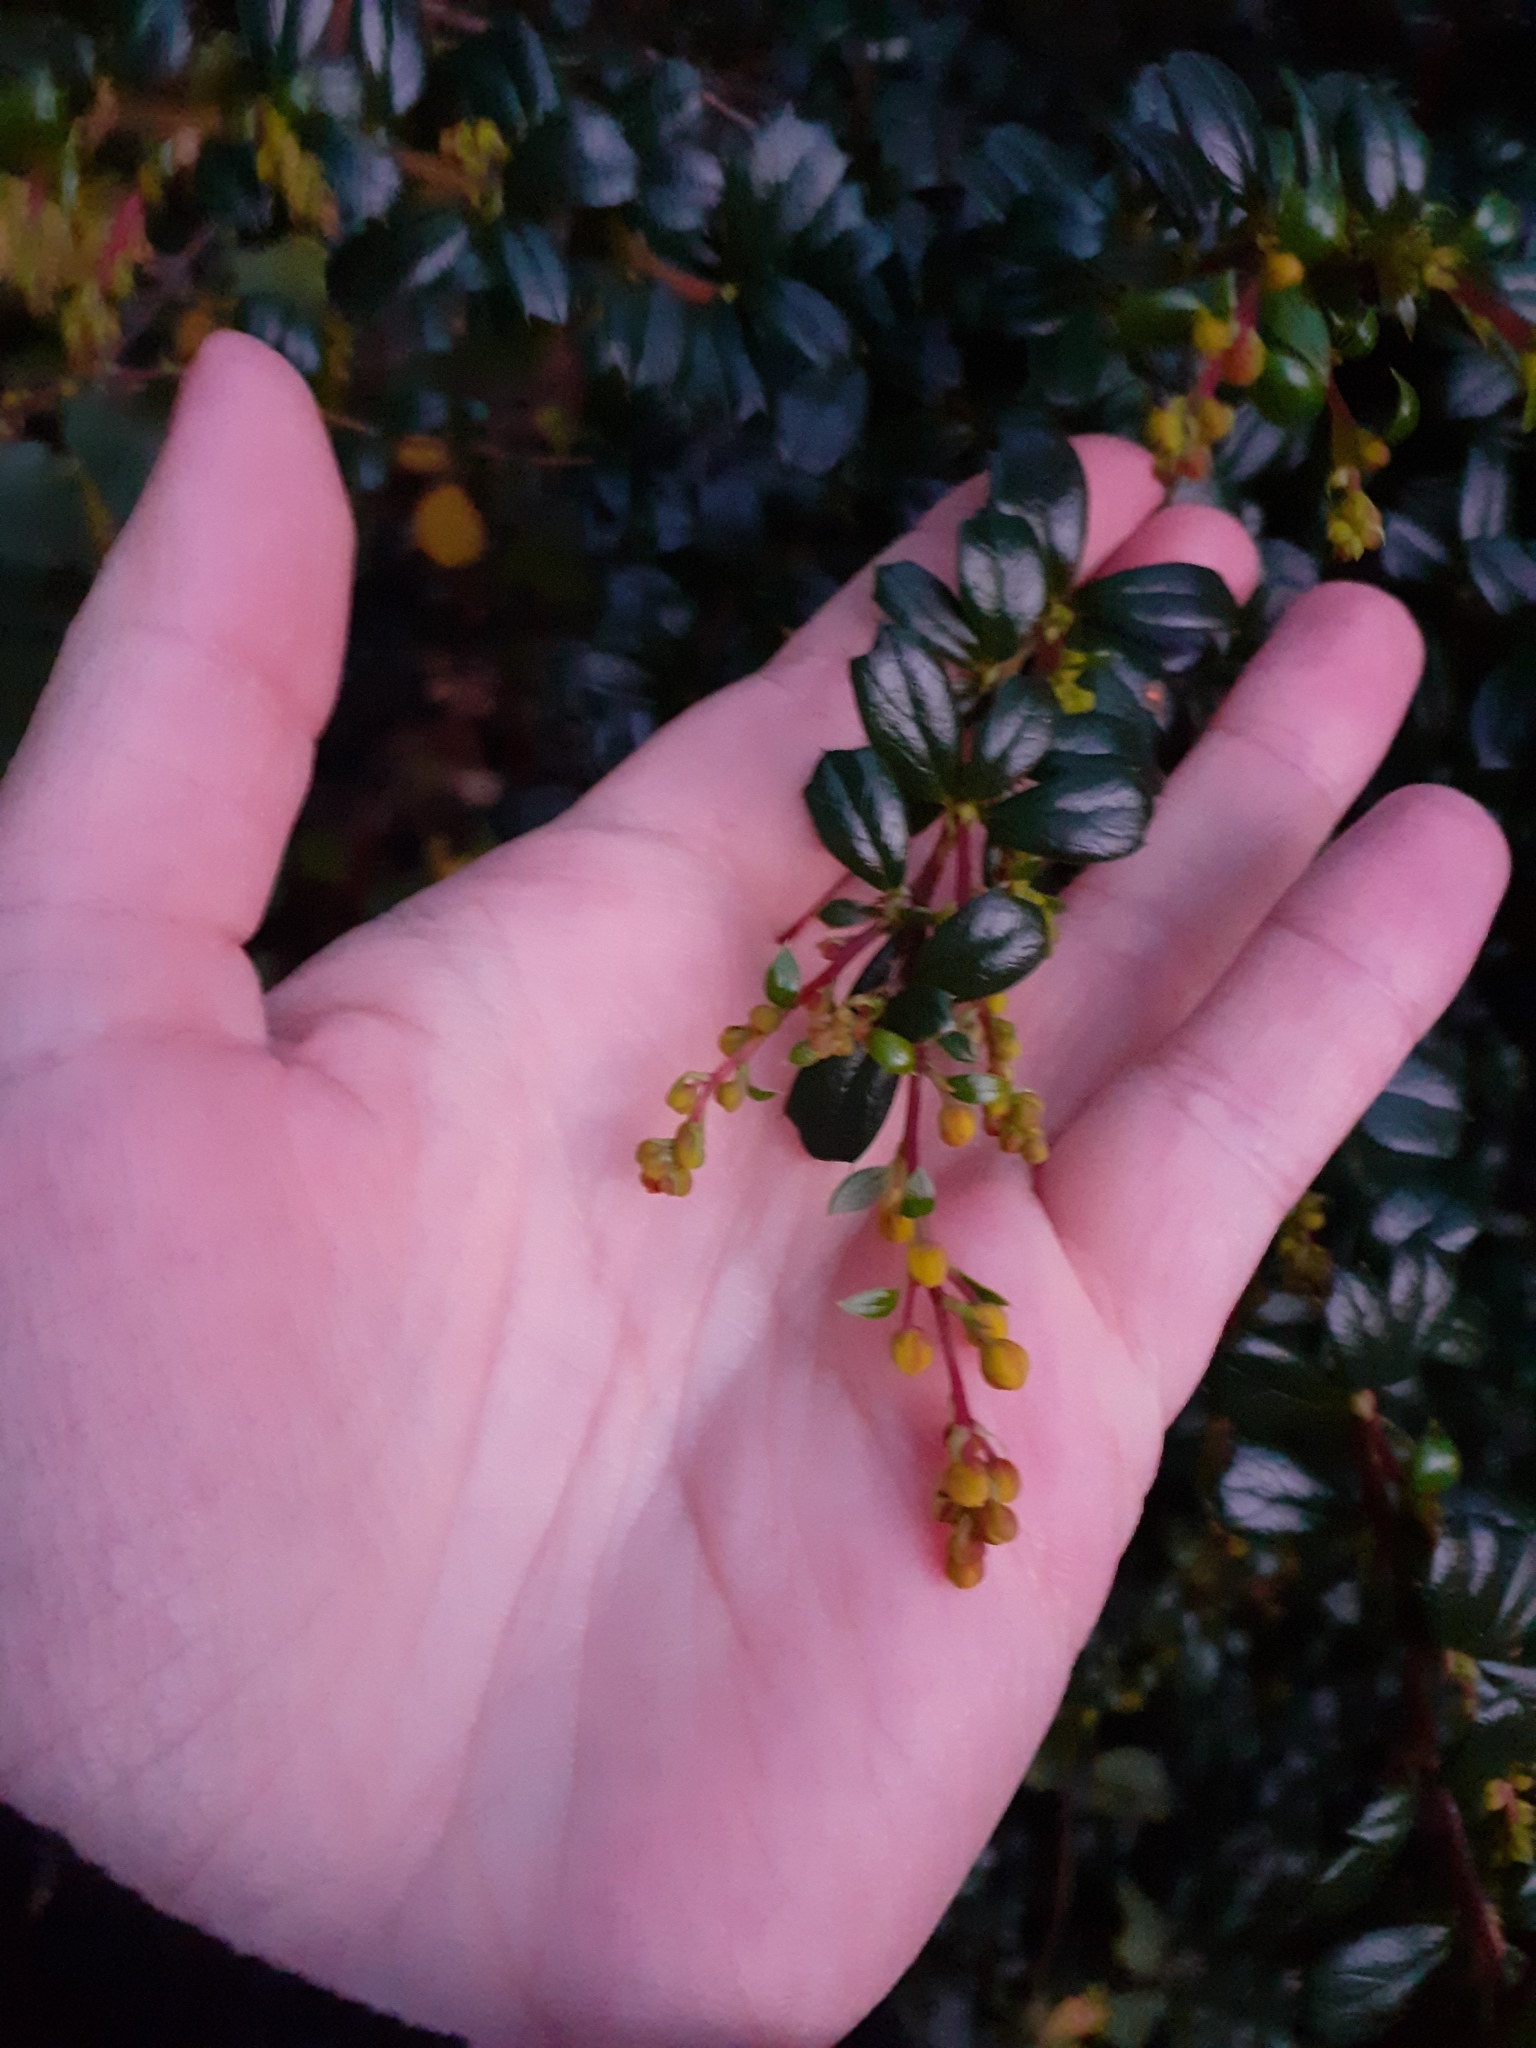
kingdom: Plantae
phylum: Tracheophyta
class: Magnoliopsida
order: Ranunculales
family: Berberidaceae
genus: Berberis
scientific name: Berberis darwinii
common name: Darwin's barberry
